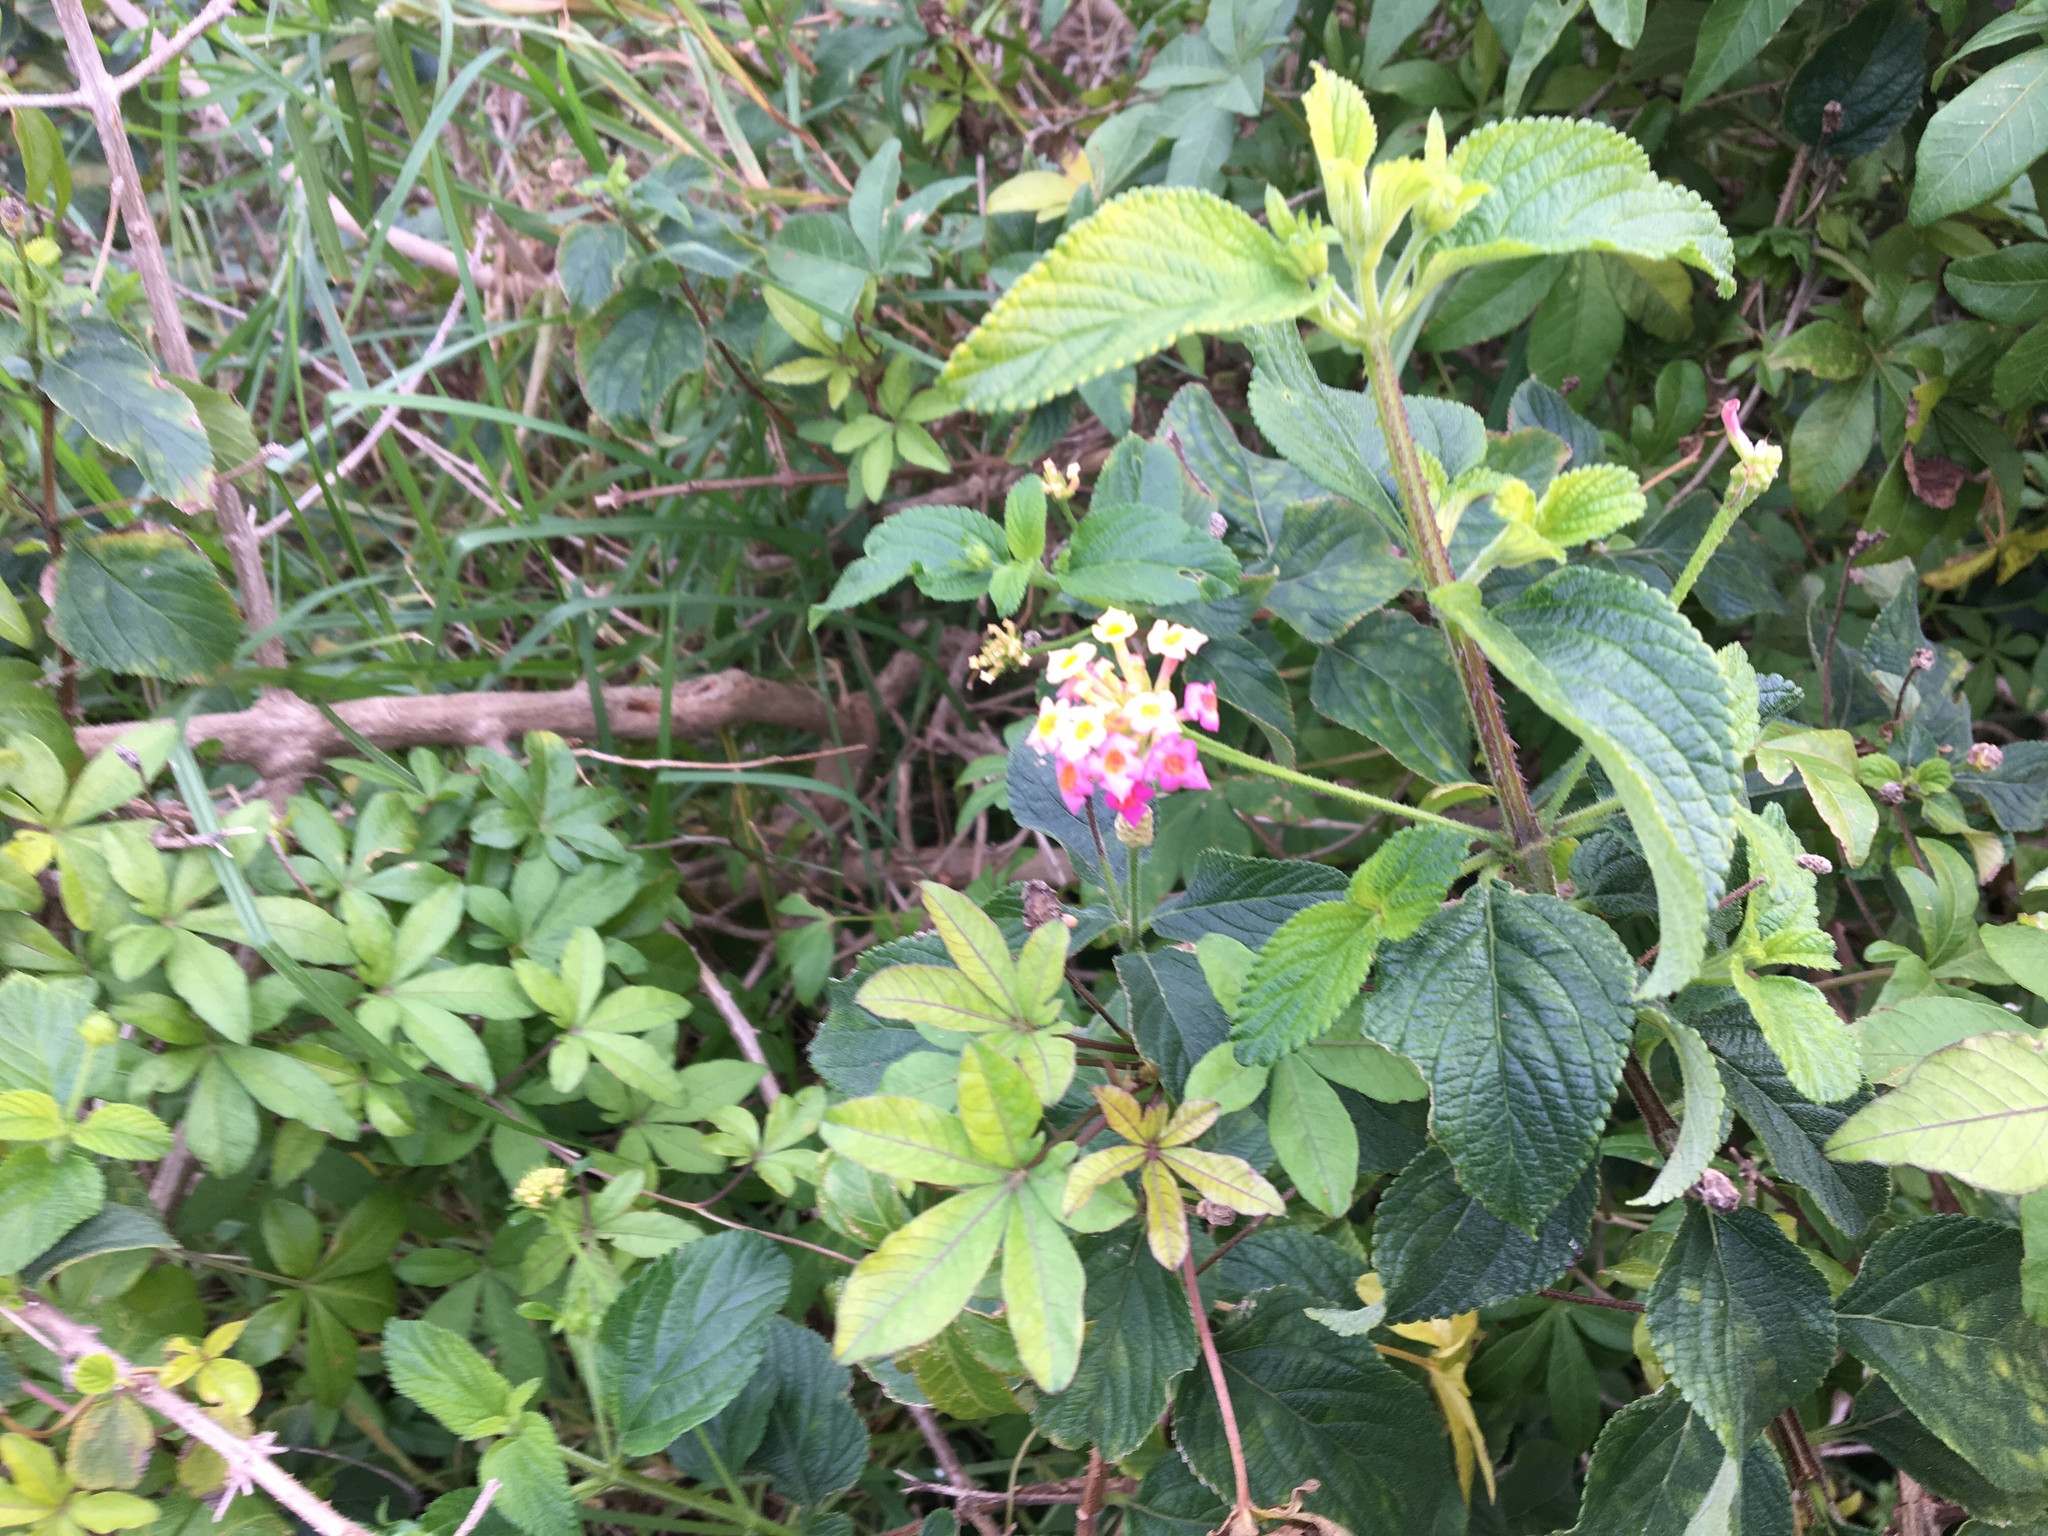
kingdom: Plantae
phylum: Tracheophyta
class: Magnoliopsida
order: Lamiales
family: Verbenaceae
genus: Lantana
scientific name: Lantana camara
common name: Lantana
